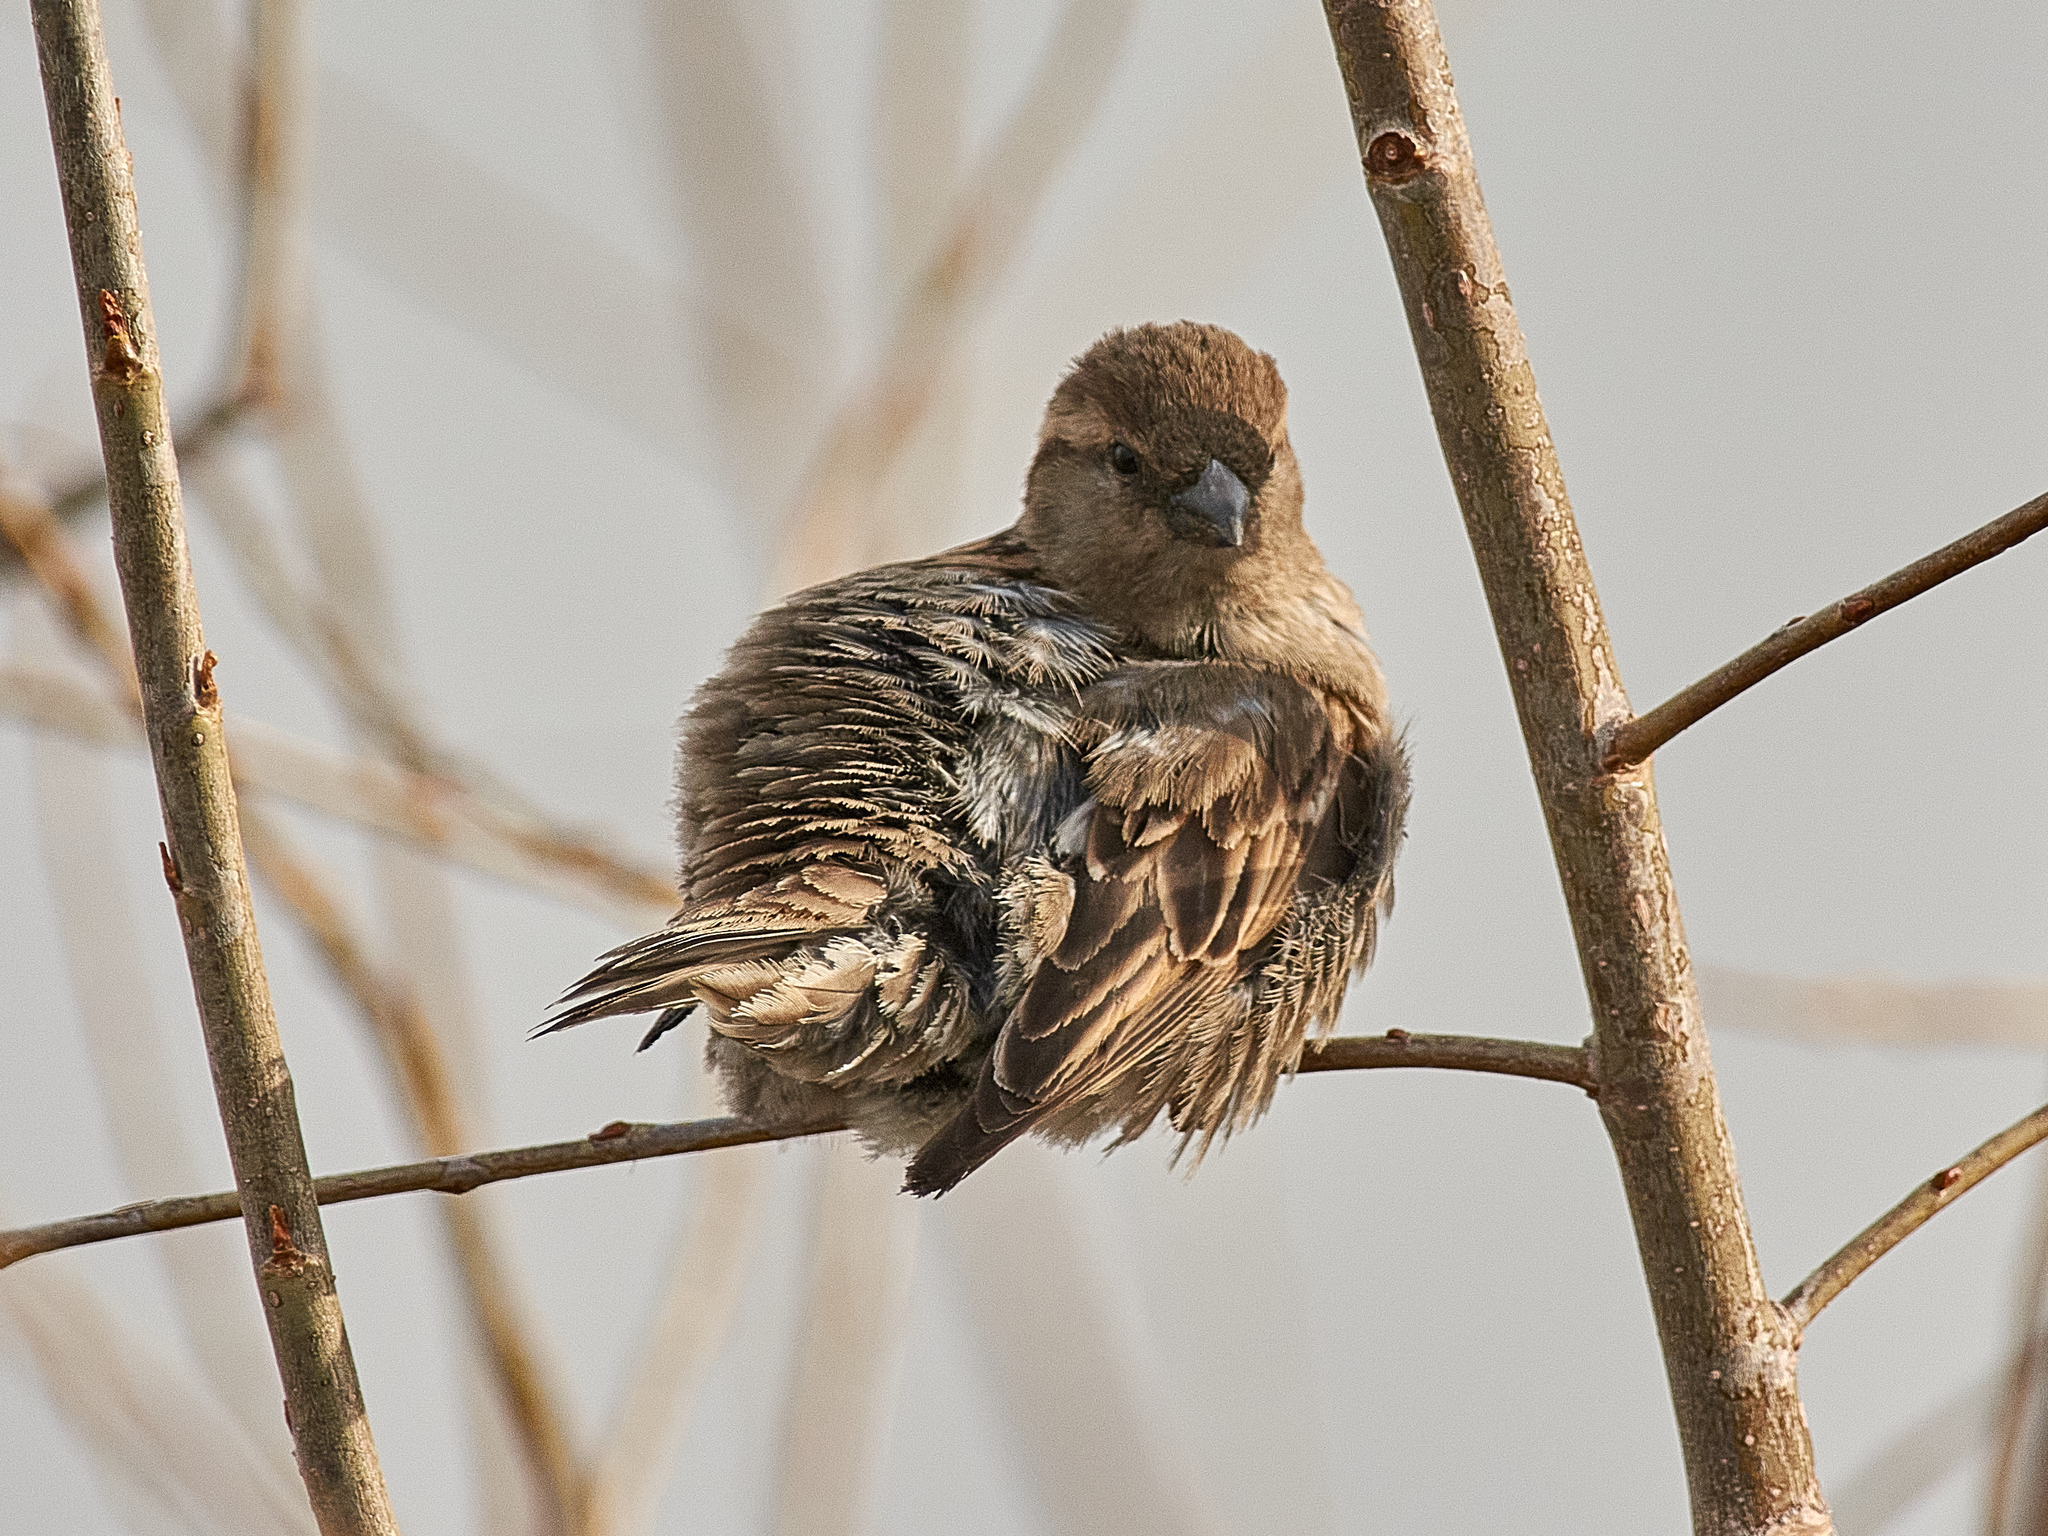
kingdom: Animalia
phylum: Chordata
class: Aves
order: Passeriformes
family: Passeridae
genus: Passer
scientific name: Passer domesticus
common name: House sparrow
